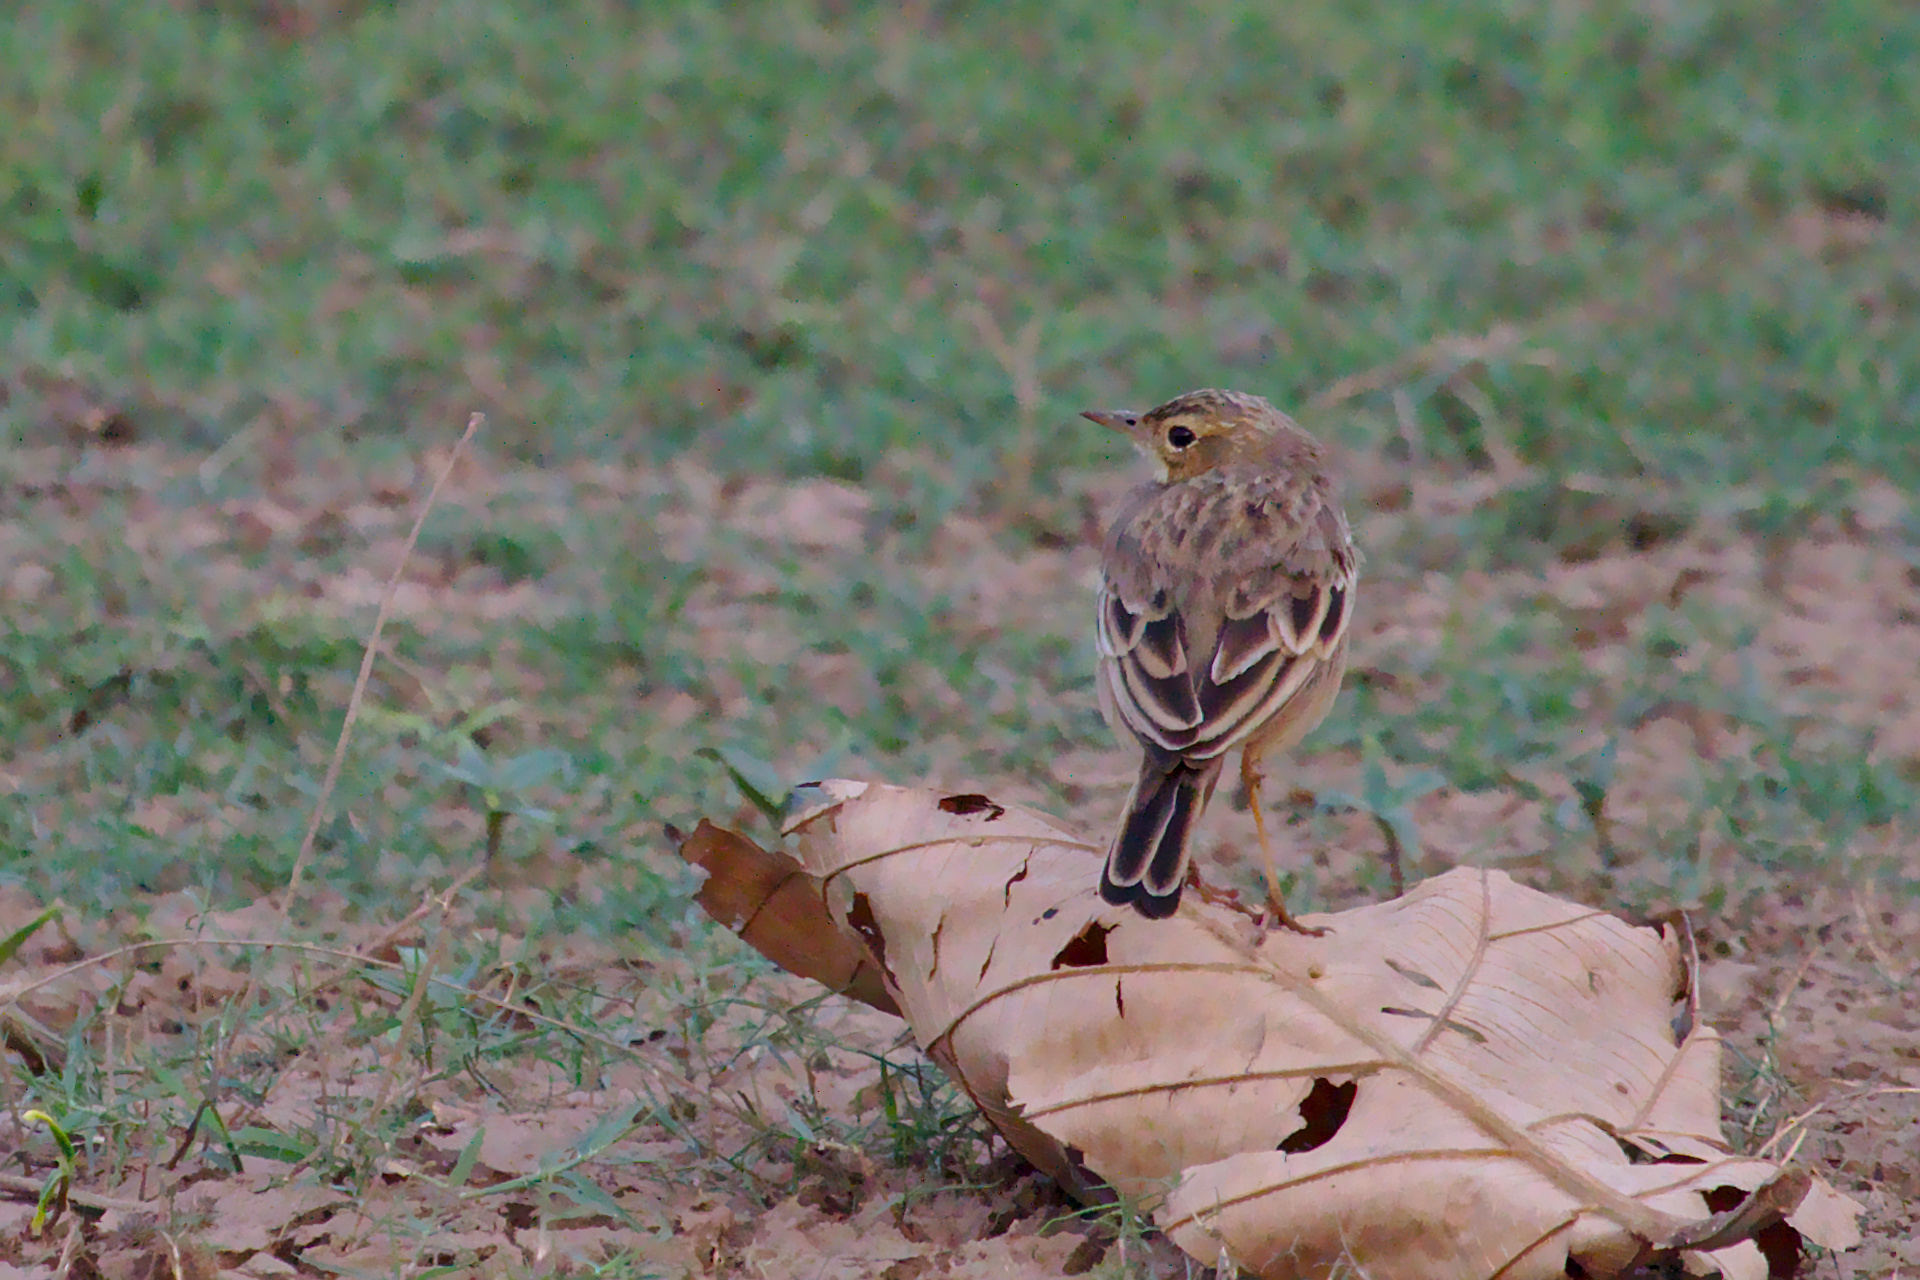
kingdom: Animalia
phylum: Chordata
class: Aves
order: Passeriformes
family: Motacillidae
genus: Anthus
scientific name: Anthus rufulus
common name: Paddyfield pipit
